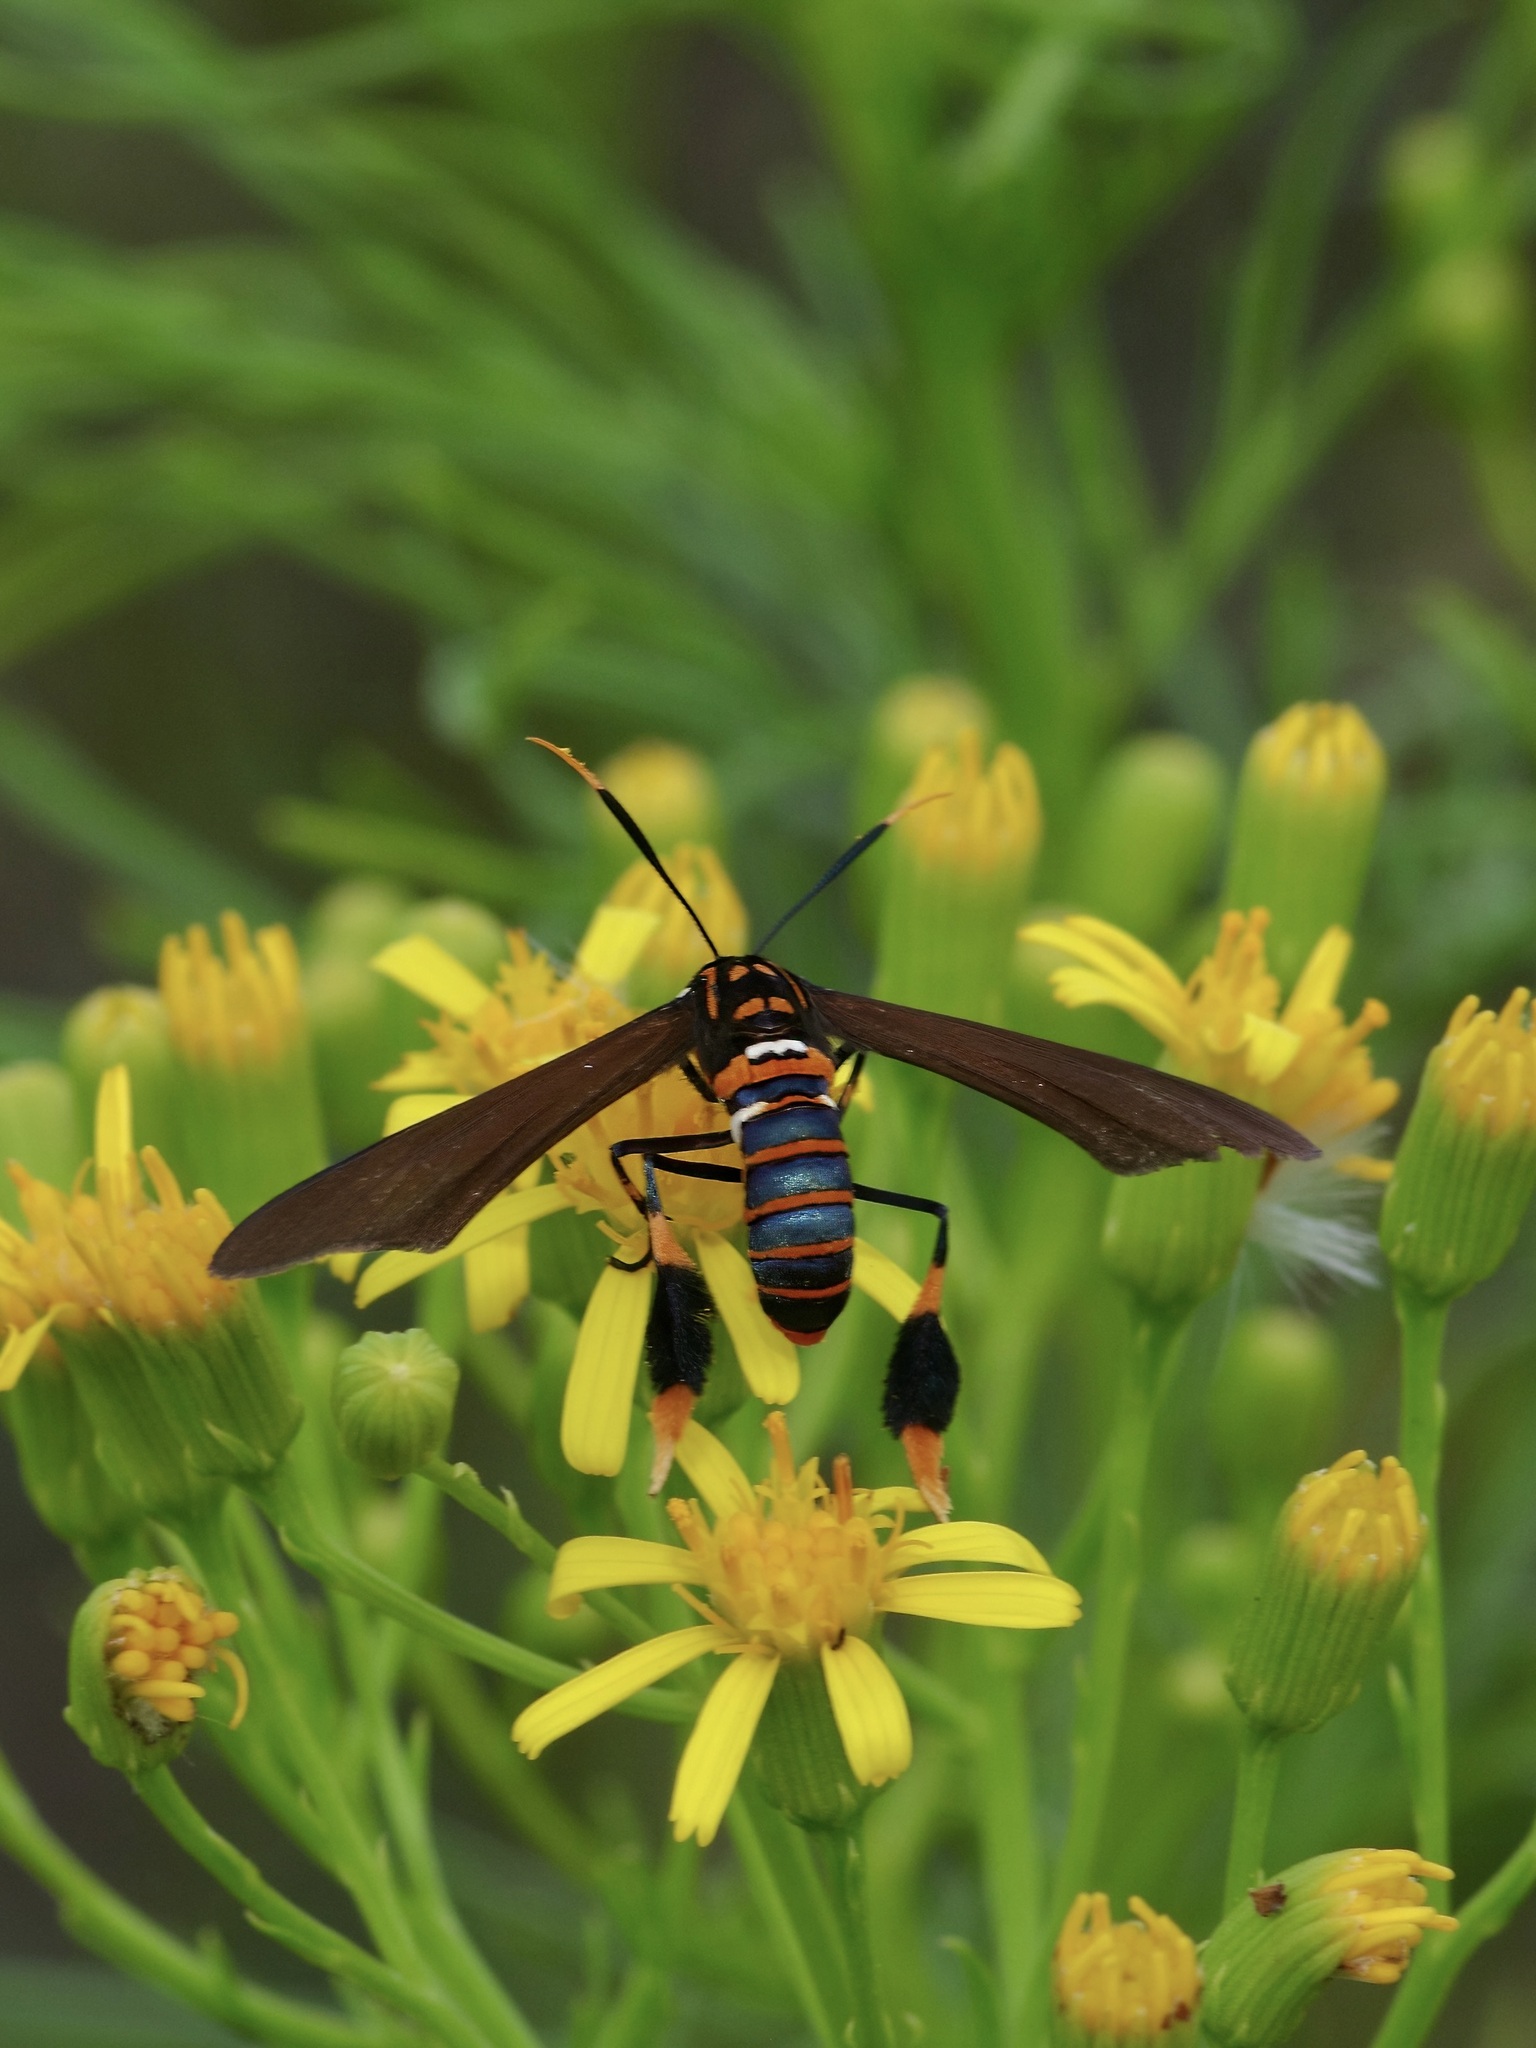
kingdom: Animalia
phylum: Arthropoda
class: Insecta
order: Lepidoptera
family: Erebidae
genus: Horama
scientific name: Horama panthalon
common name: Texas wasp moth
